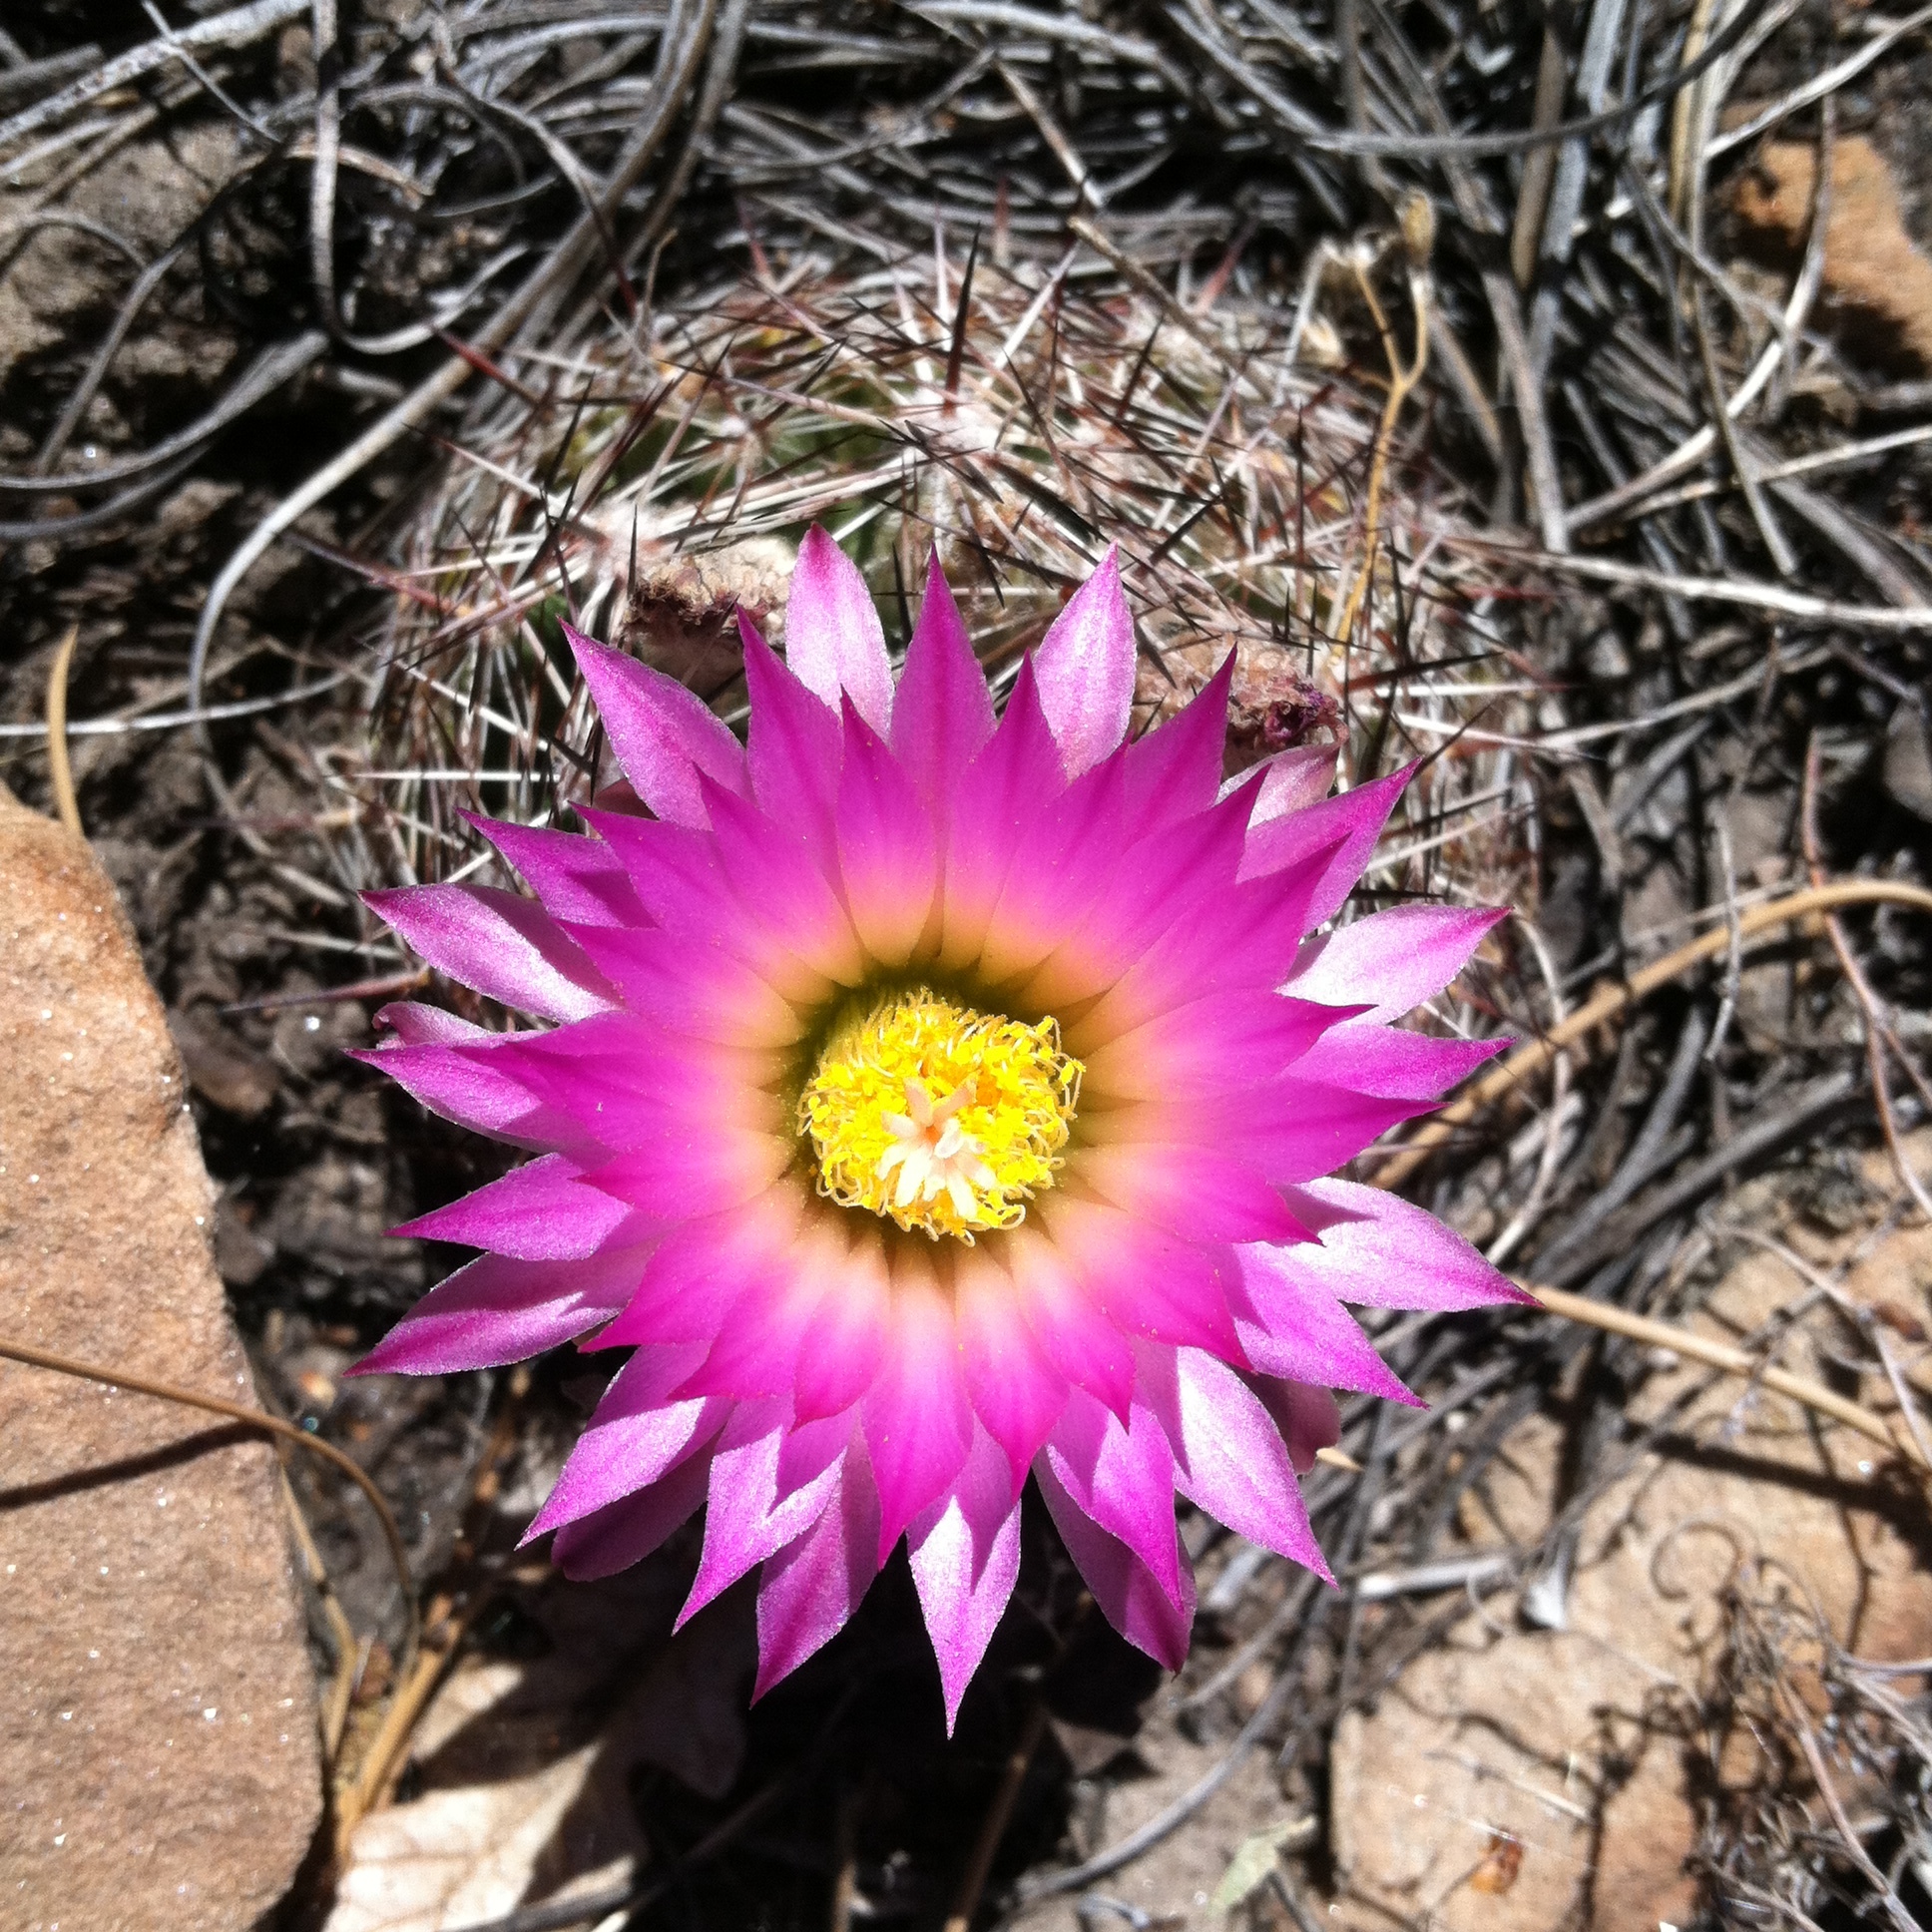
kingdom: Plantae
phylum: Tracheophyta
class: Magnoliopsida
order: Caryophyllales
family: Cactaceae
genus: Pelecyphora
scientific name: Pelecyphora vivipara
